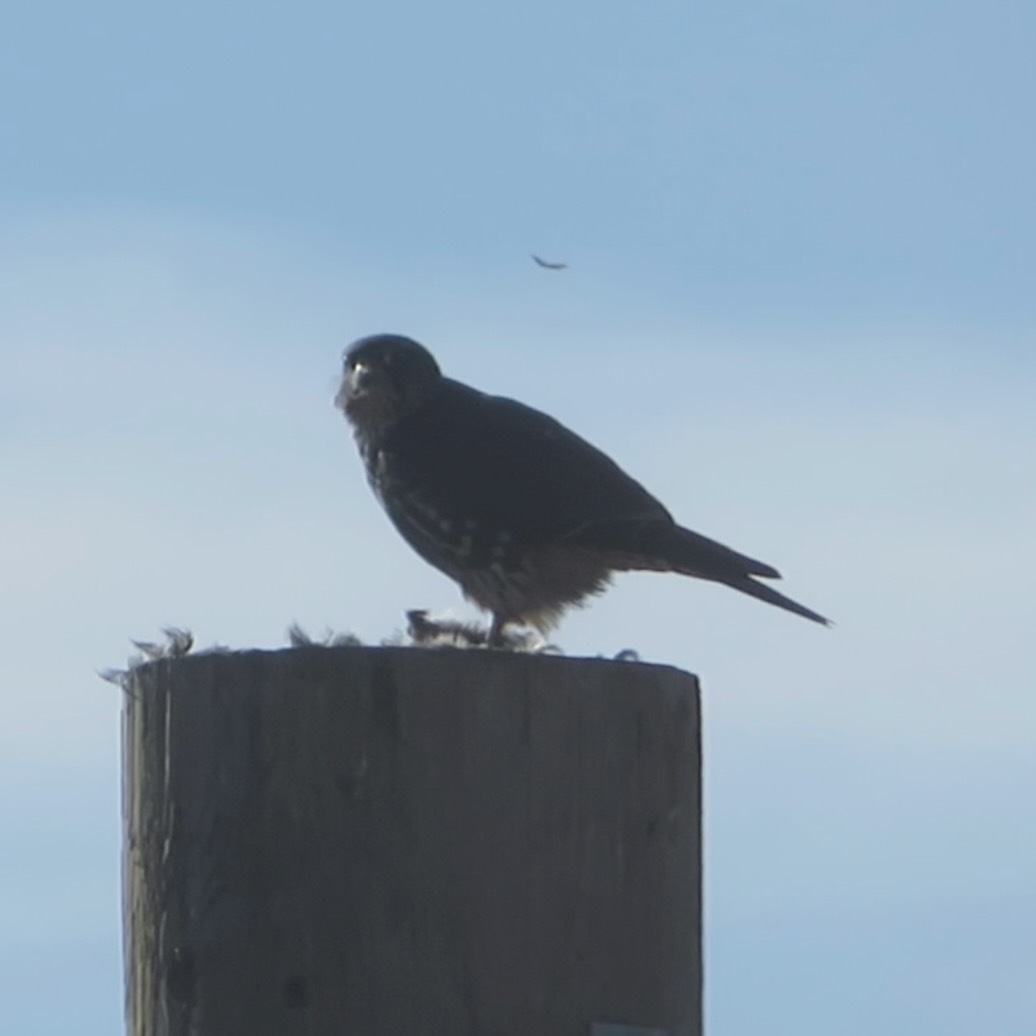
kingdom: Animalia
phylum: Chordata
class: Aves
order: Falconiformes
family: Falconidae
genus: Falco
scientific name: Falco columbarius
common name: Merlin
